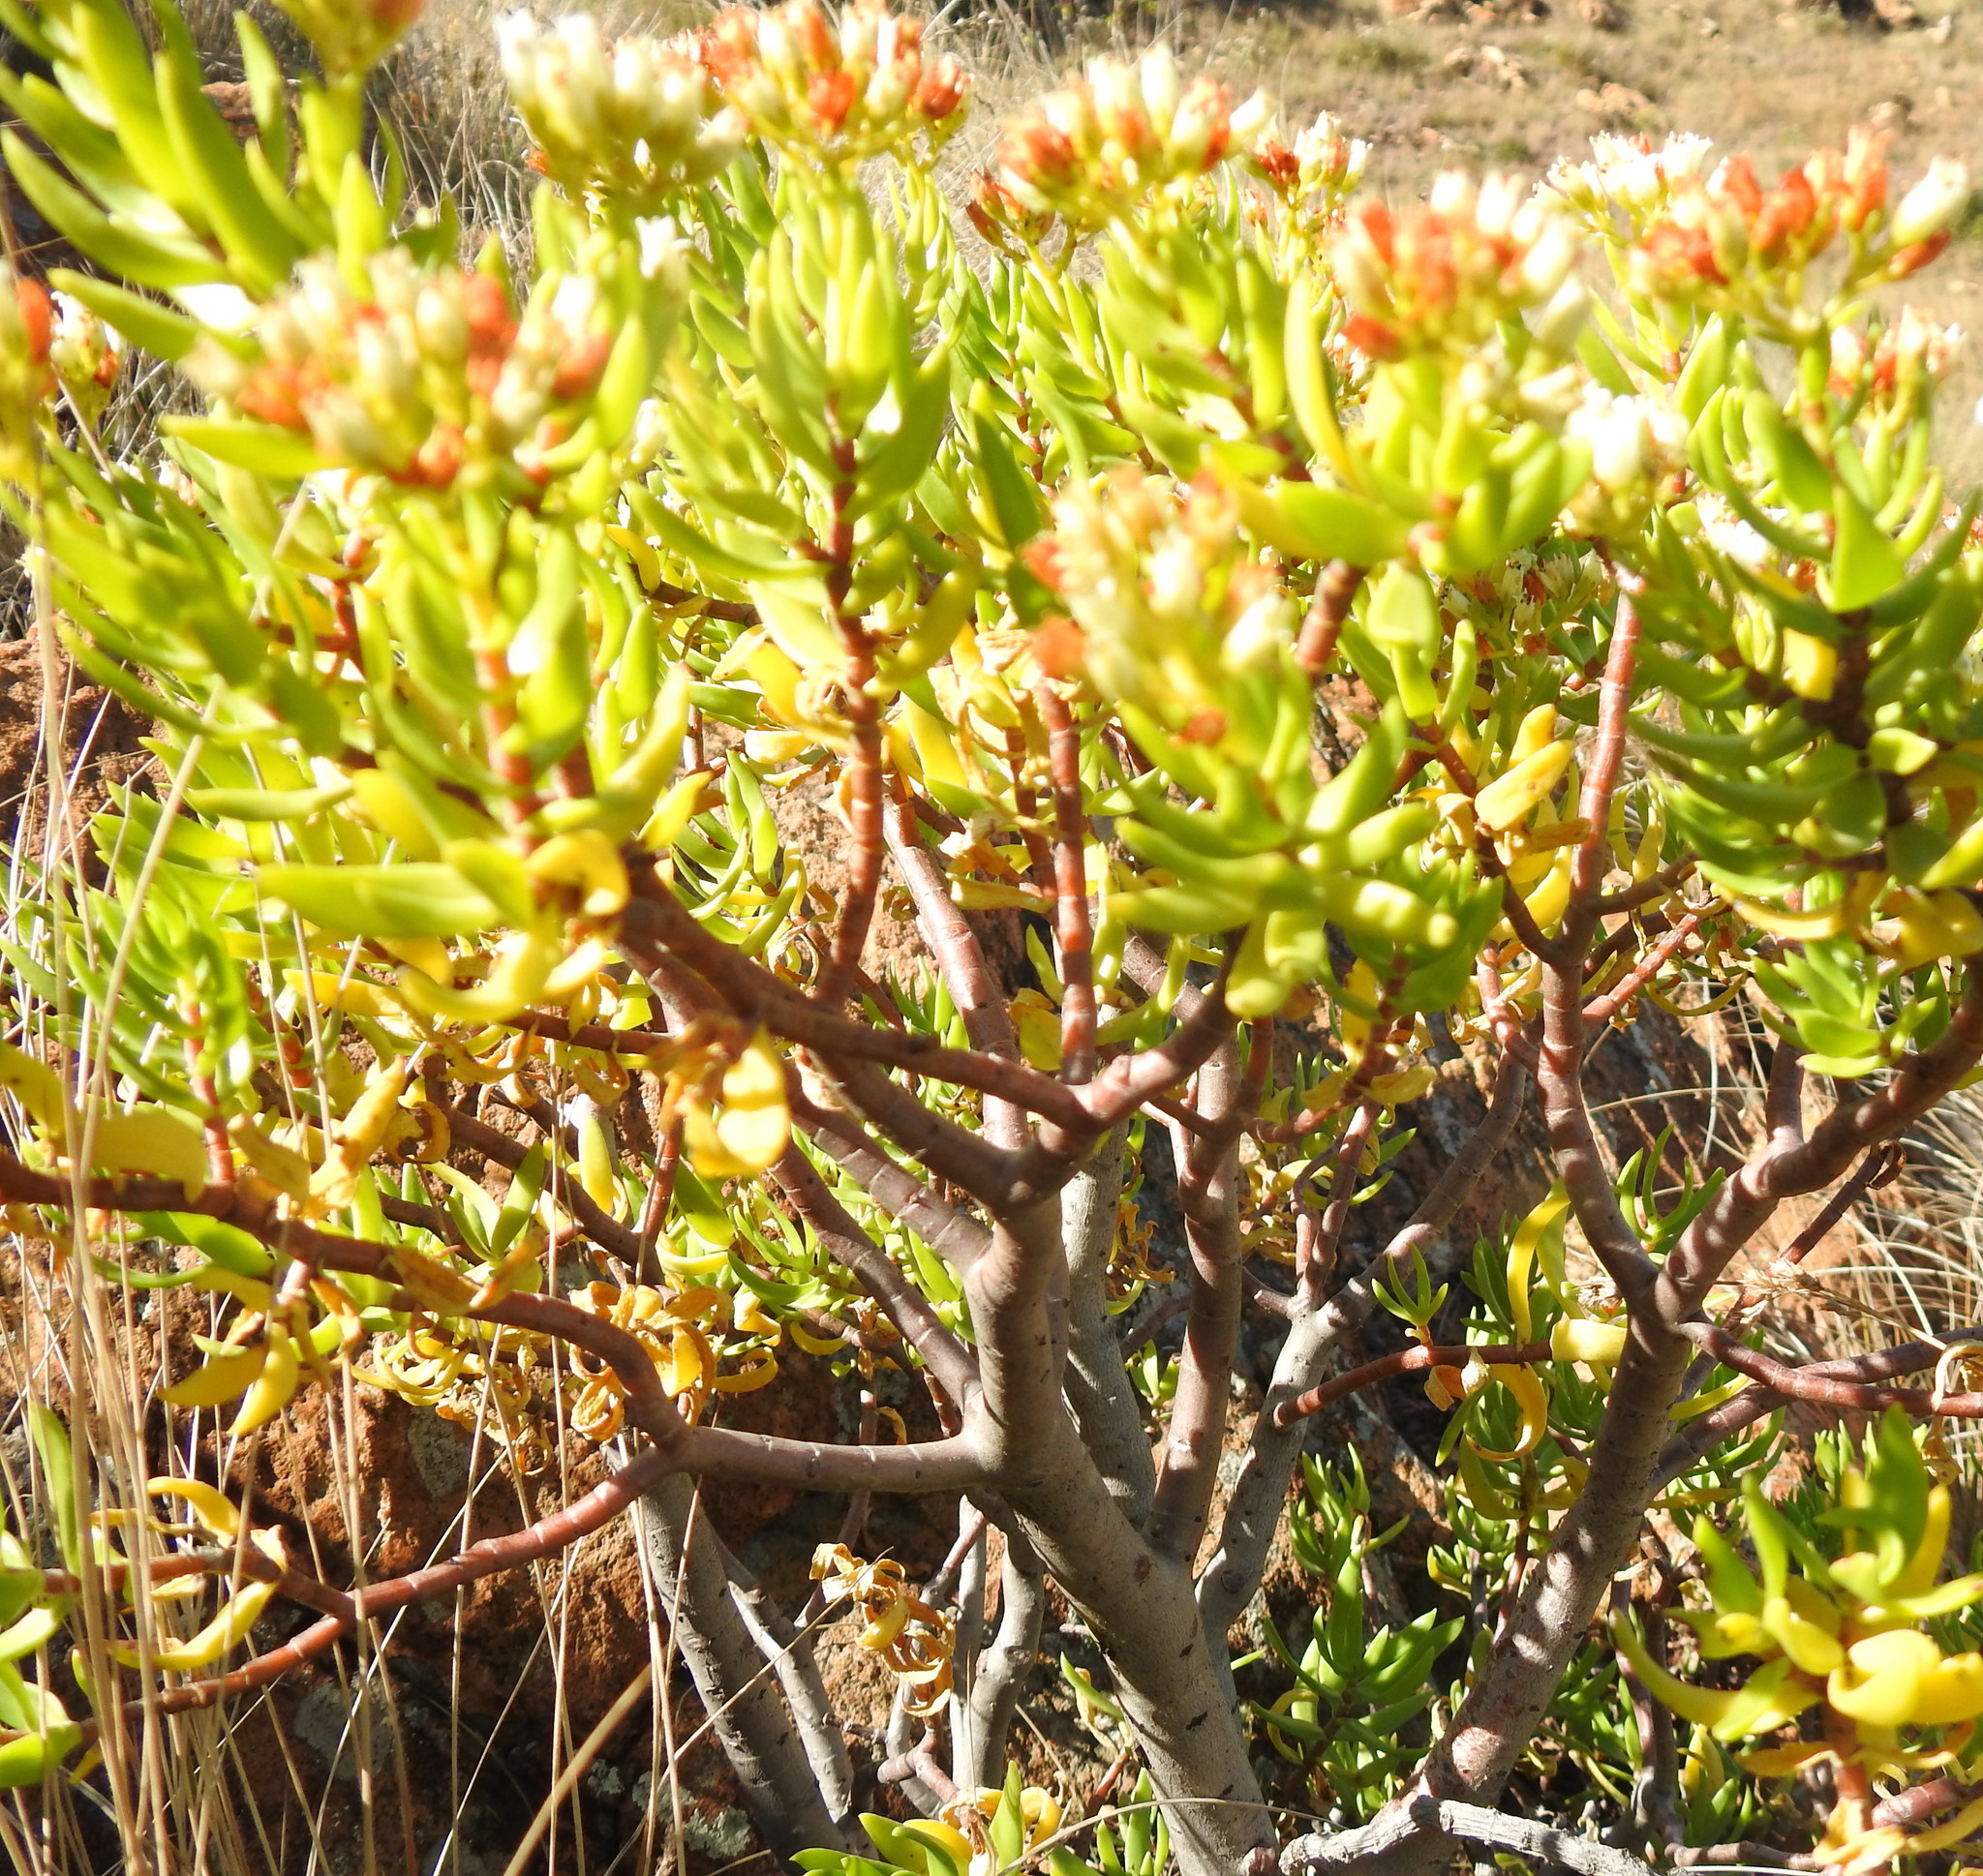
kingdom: Plantae
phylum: Tracheophyta
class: Magnoliopsida
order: Saxifragales
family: Crassulaceae
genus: Crassula
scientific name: Crassula sarcocaulis
